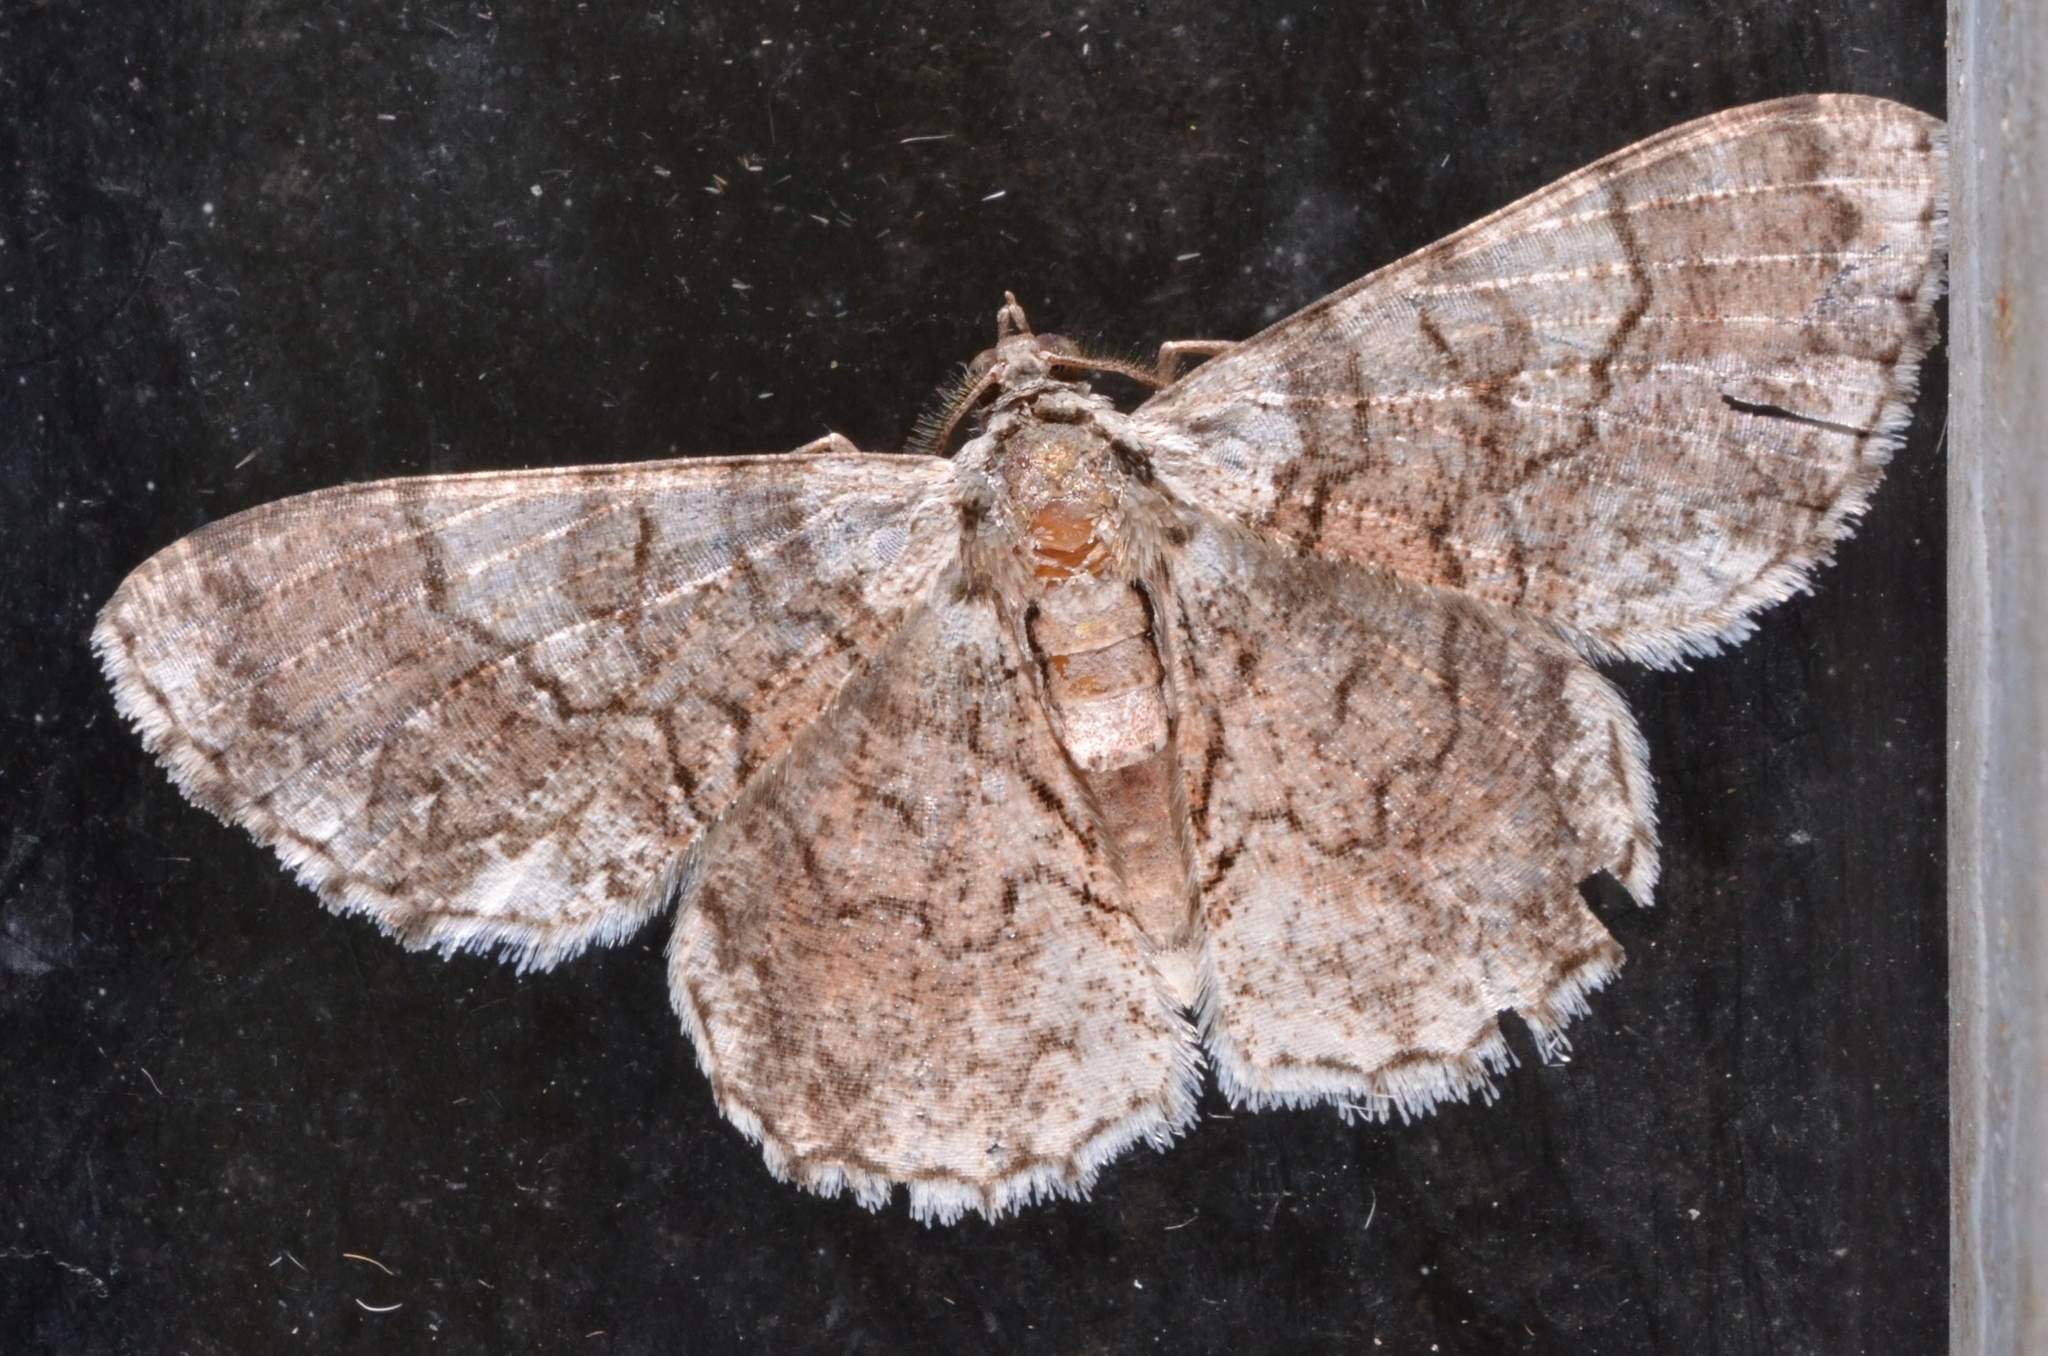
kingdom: Animalia
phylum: Arthropoda
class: Insecta
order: Lepidoptera
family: Geometridae
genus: Myrioblephara
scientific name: Myrioblephara pingasoides
